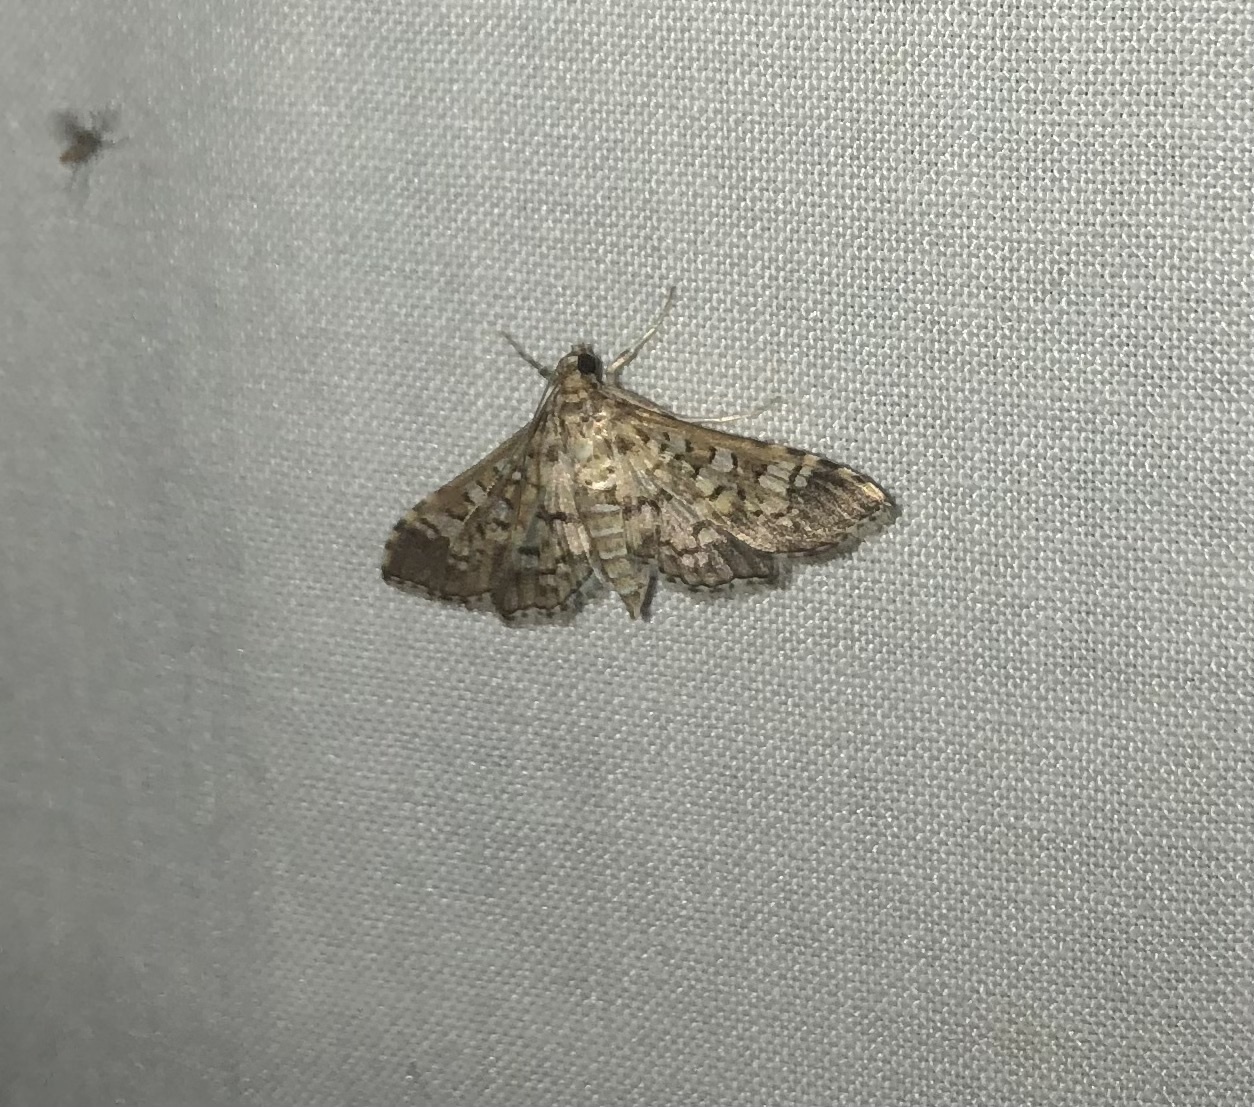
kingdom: Animalia
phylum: Arthropoda
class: Insecta
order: Lepidoptera
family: Crambidae
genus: Samea
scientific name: Samea ecclesialis
